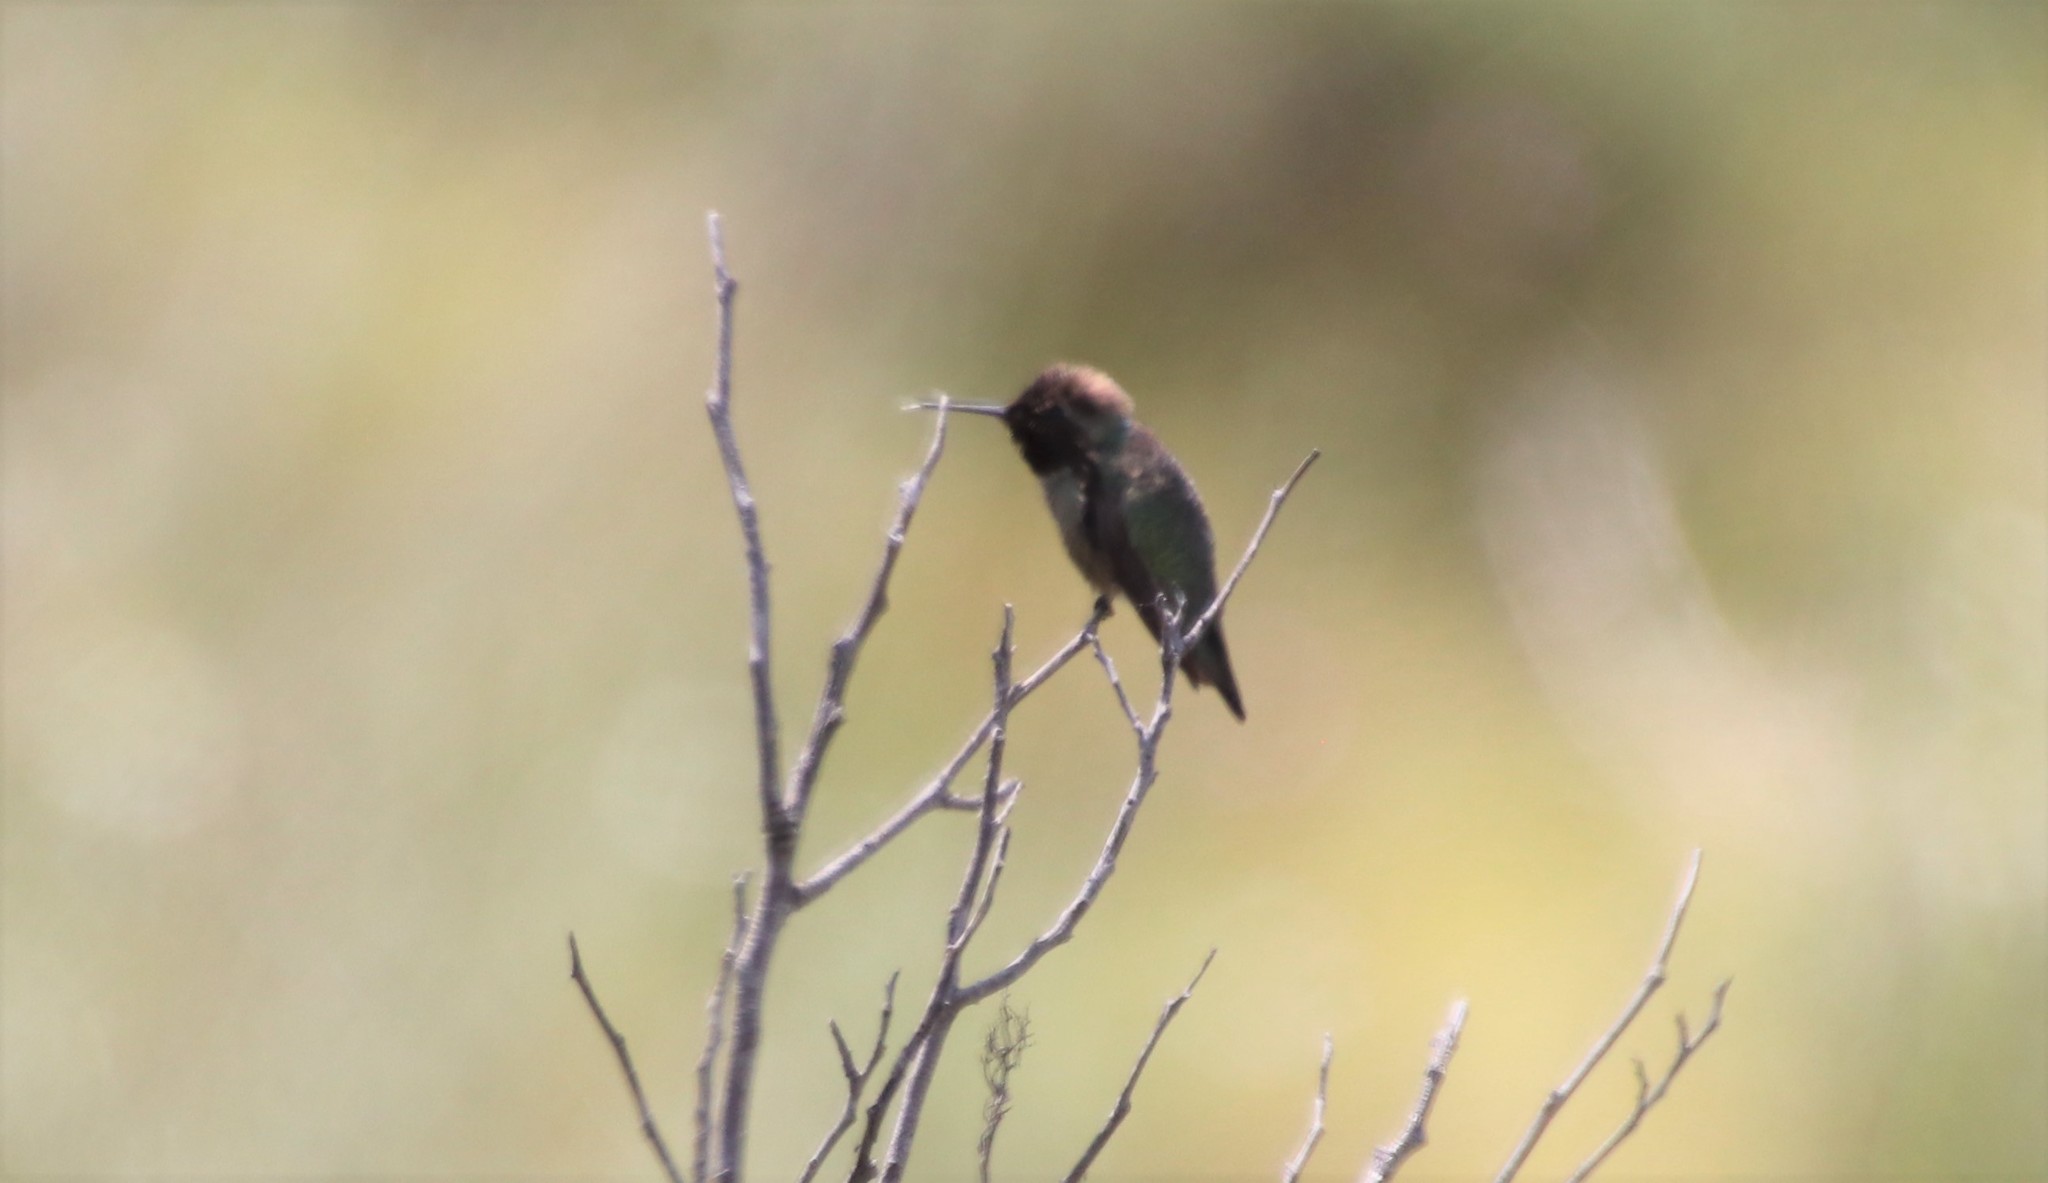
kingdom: Animalia
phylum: Chordata
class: Aves
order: Apodiformes
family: Trochilidae
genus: Calypte
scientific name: Calypte anna
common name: Anna's hummingbird
